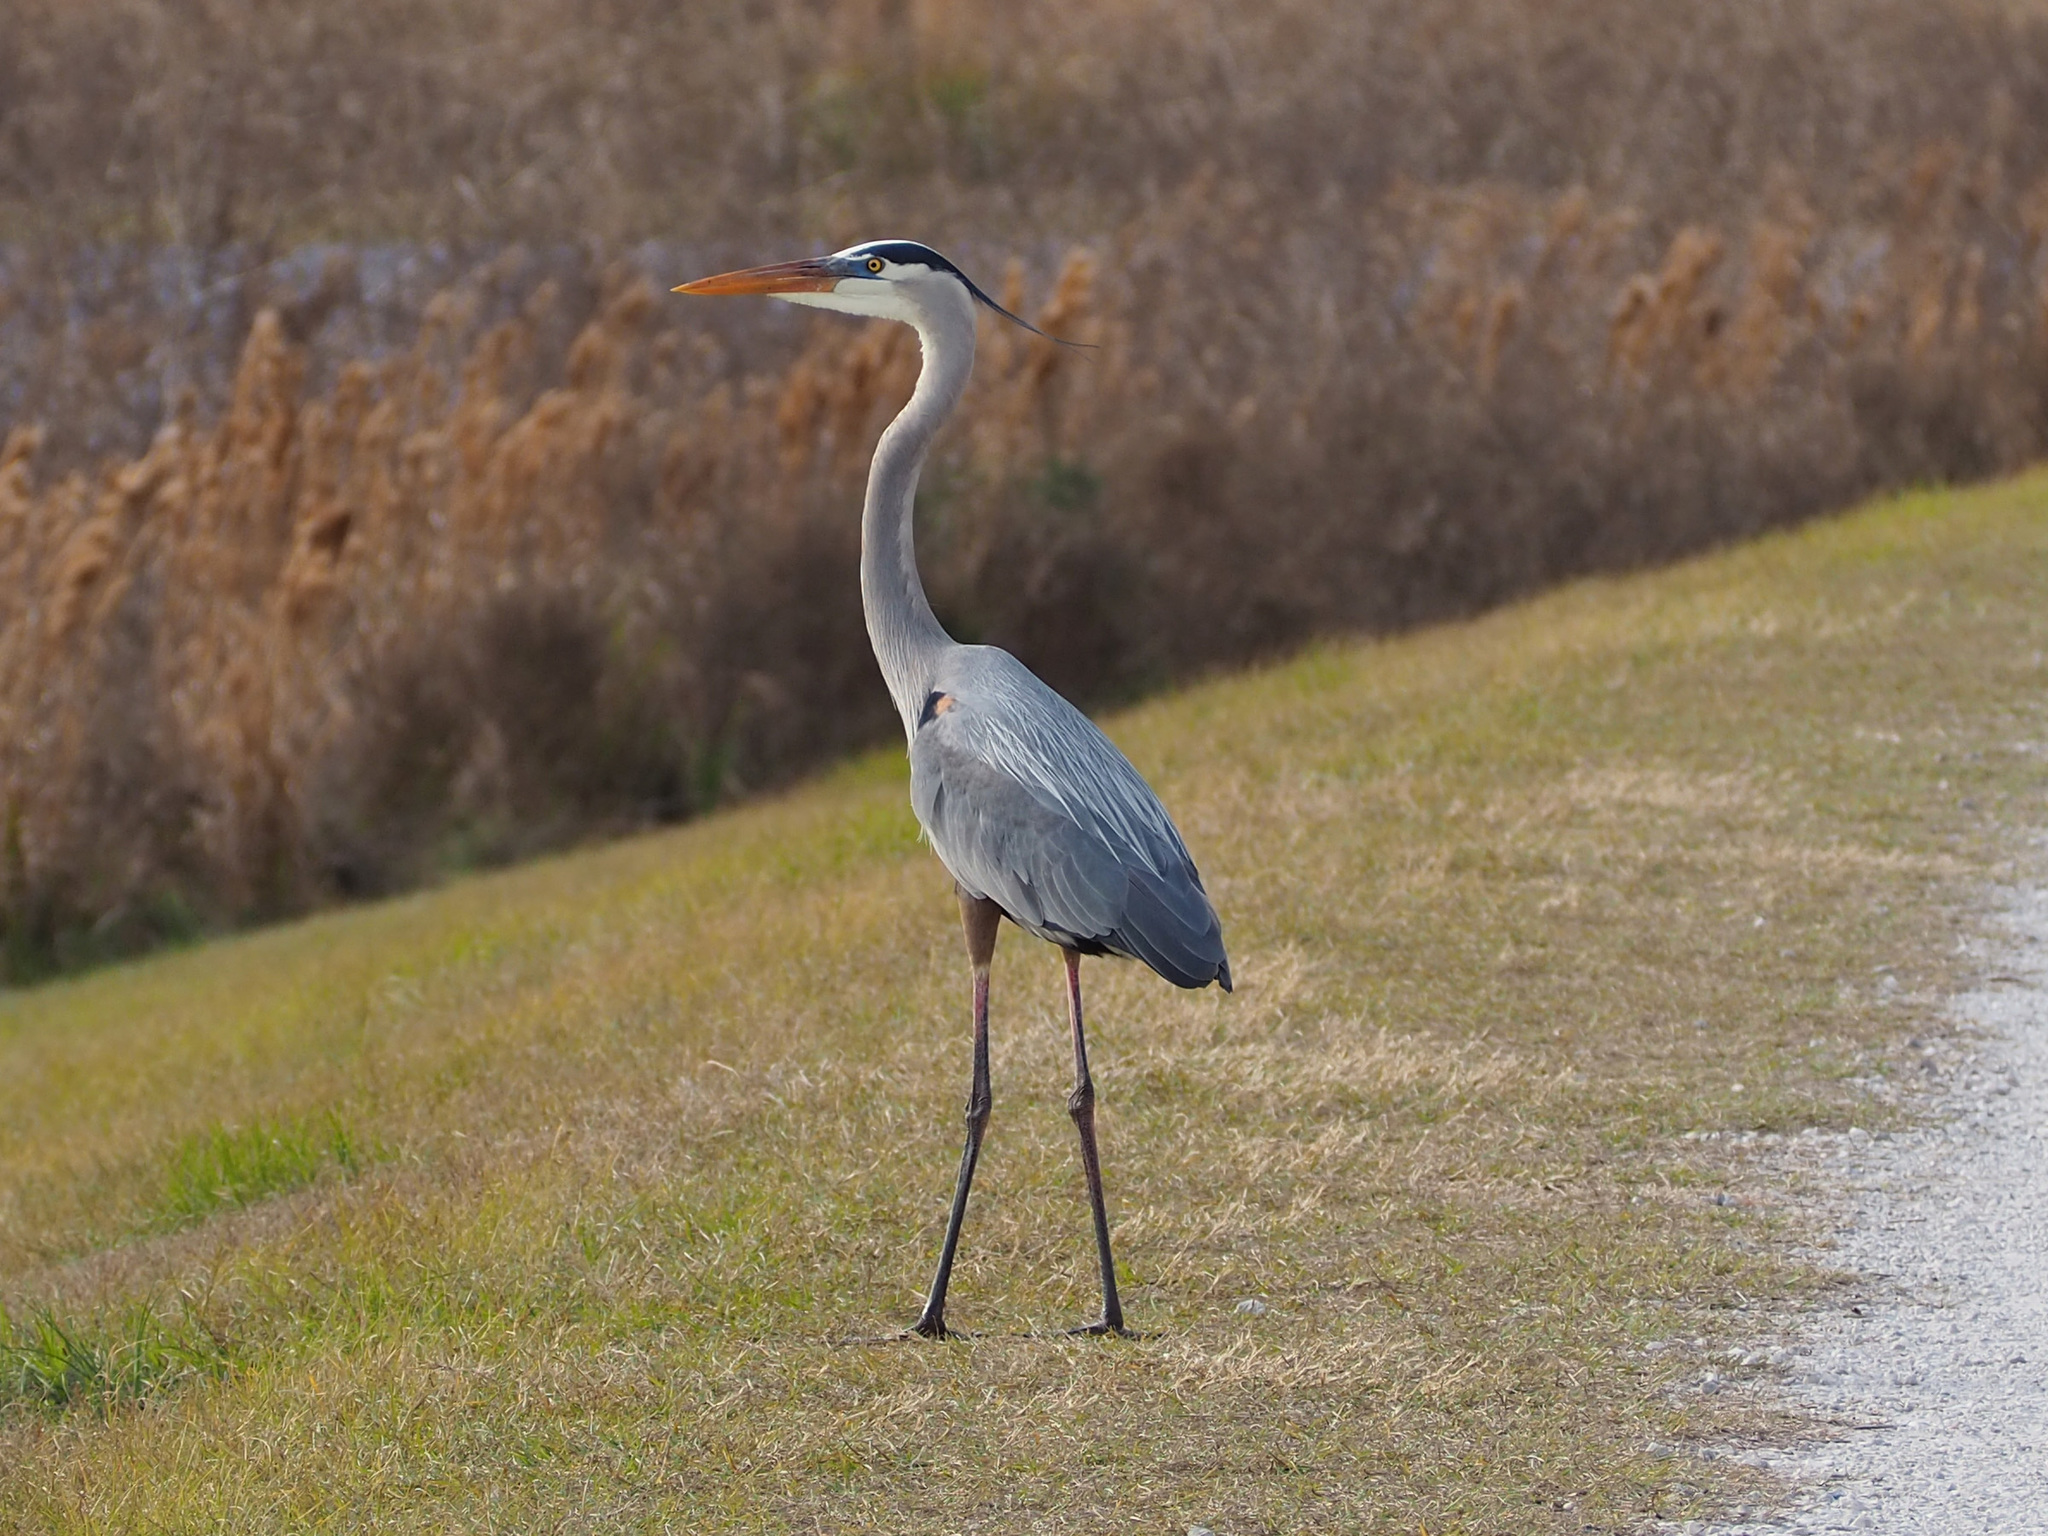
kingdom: Animalia
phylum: Chordata
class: Aves
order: Pelecaniformes
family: Ardeidae
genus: Ardea
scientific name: Ardea herodias
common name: Great blue heron
